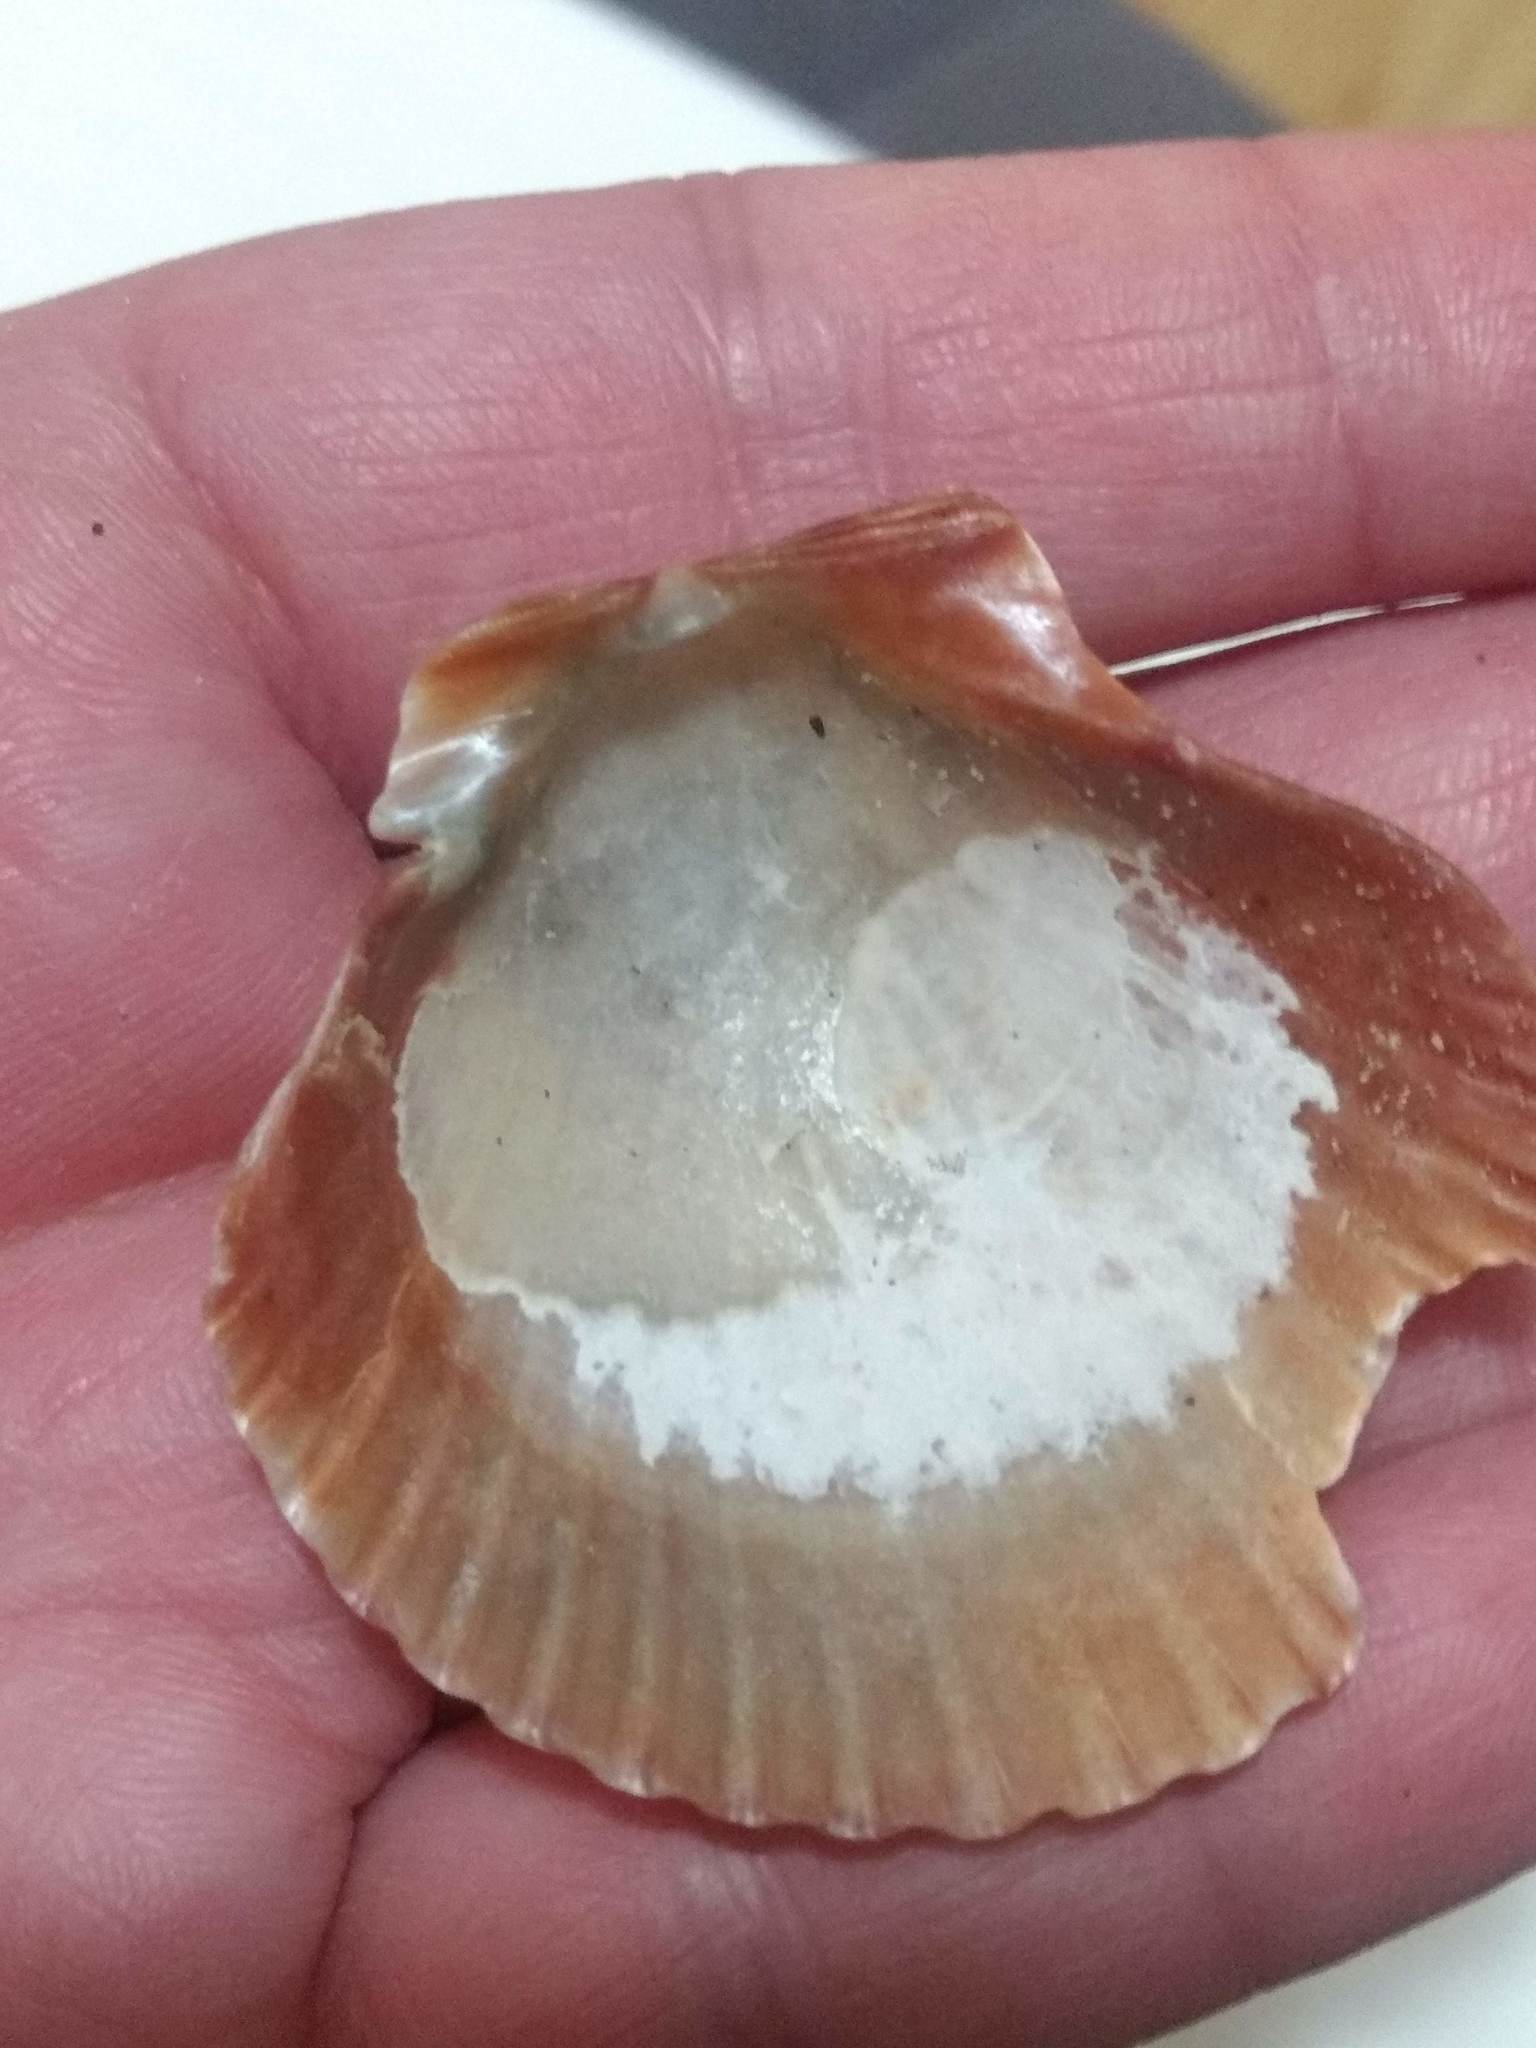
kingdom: Animalia
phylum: Mollusca
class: Bivalvia
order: Pectinida
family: Pectinidae
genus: Argopecten
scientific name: Argopecten ventricosus
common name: Catarina scallop
